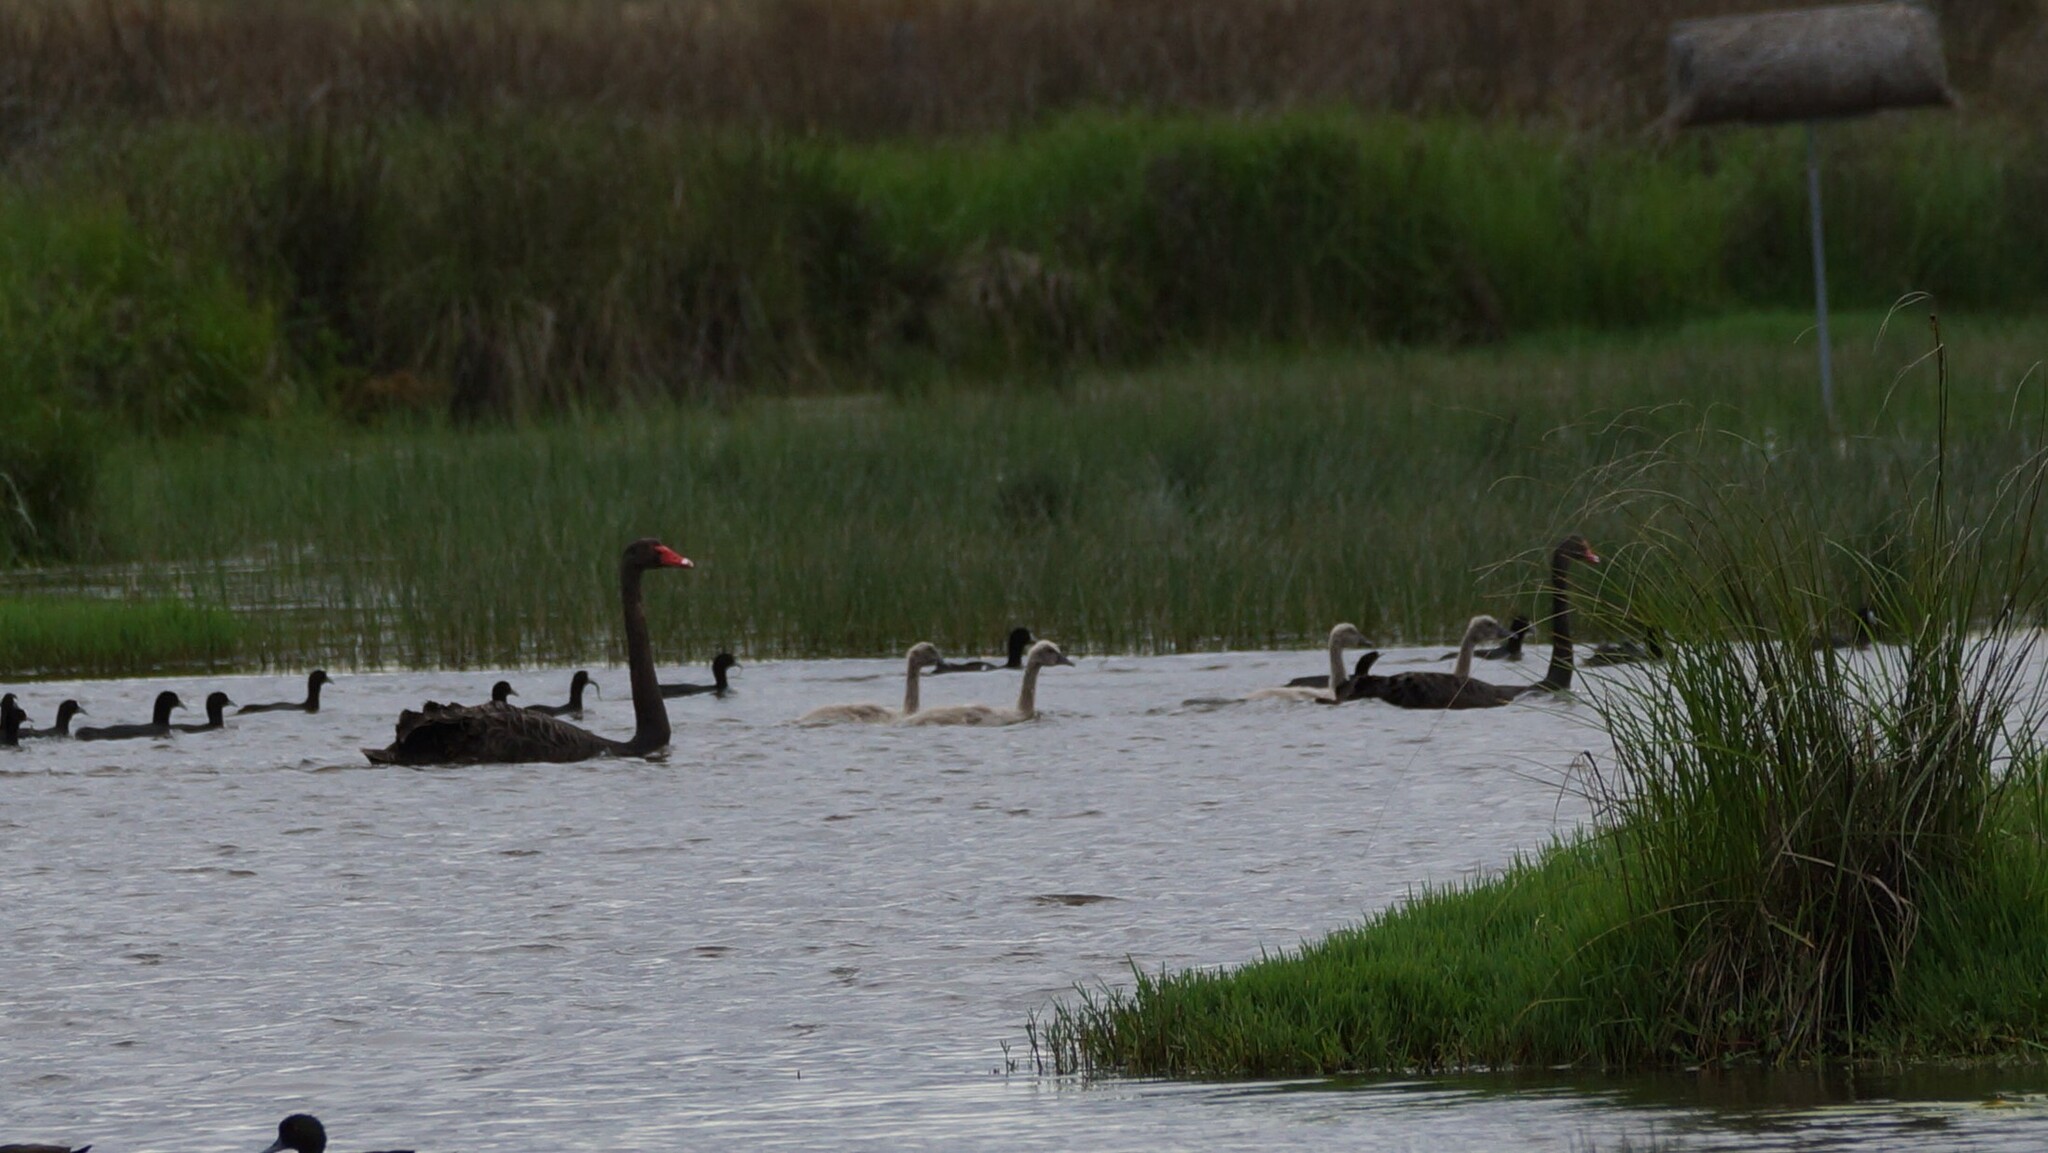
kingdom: Animalia
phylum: Chordata
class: Aves
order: Anseriformes
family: Anatidae
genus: Cygnus
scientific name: Cygnus atratus
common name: Black swan
